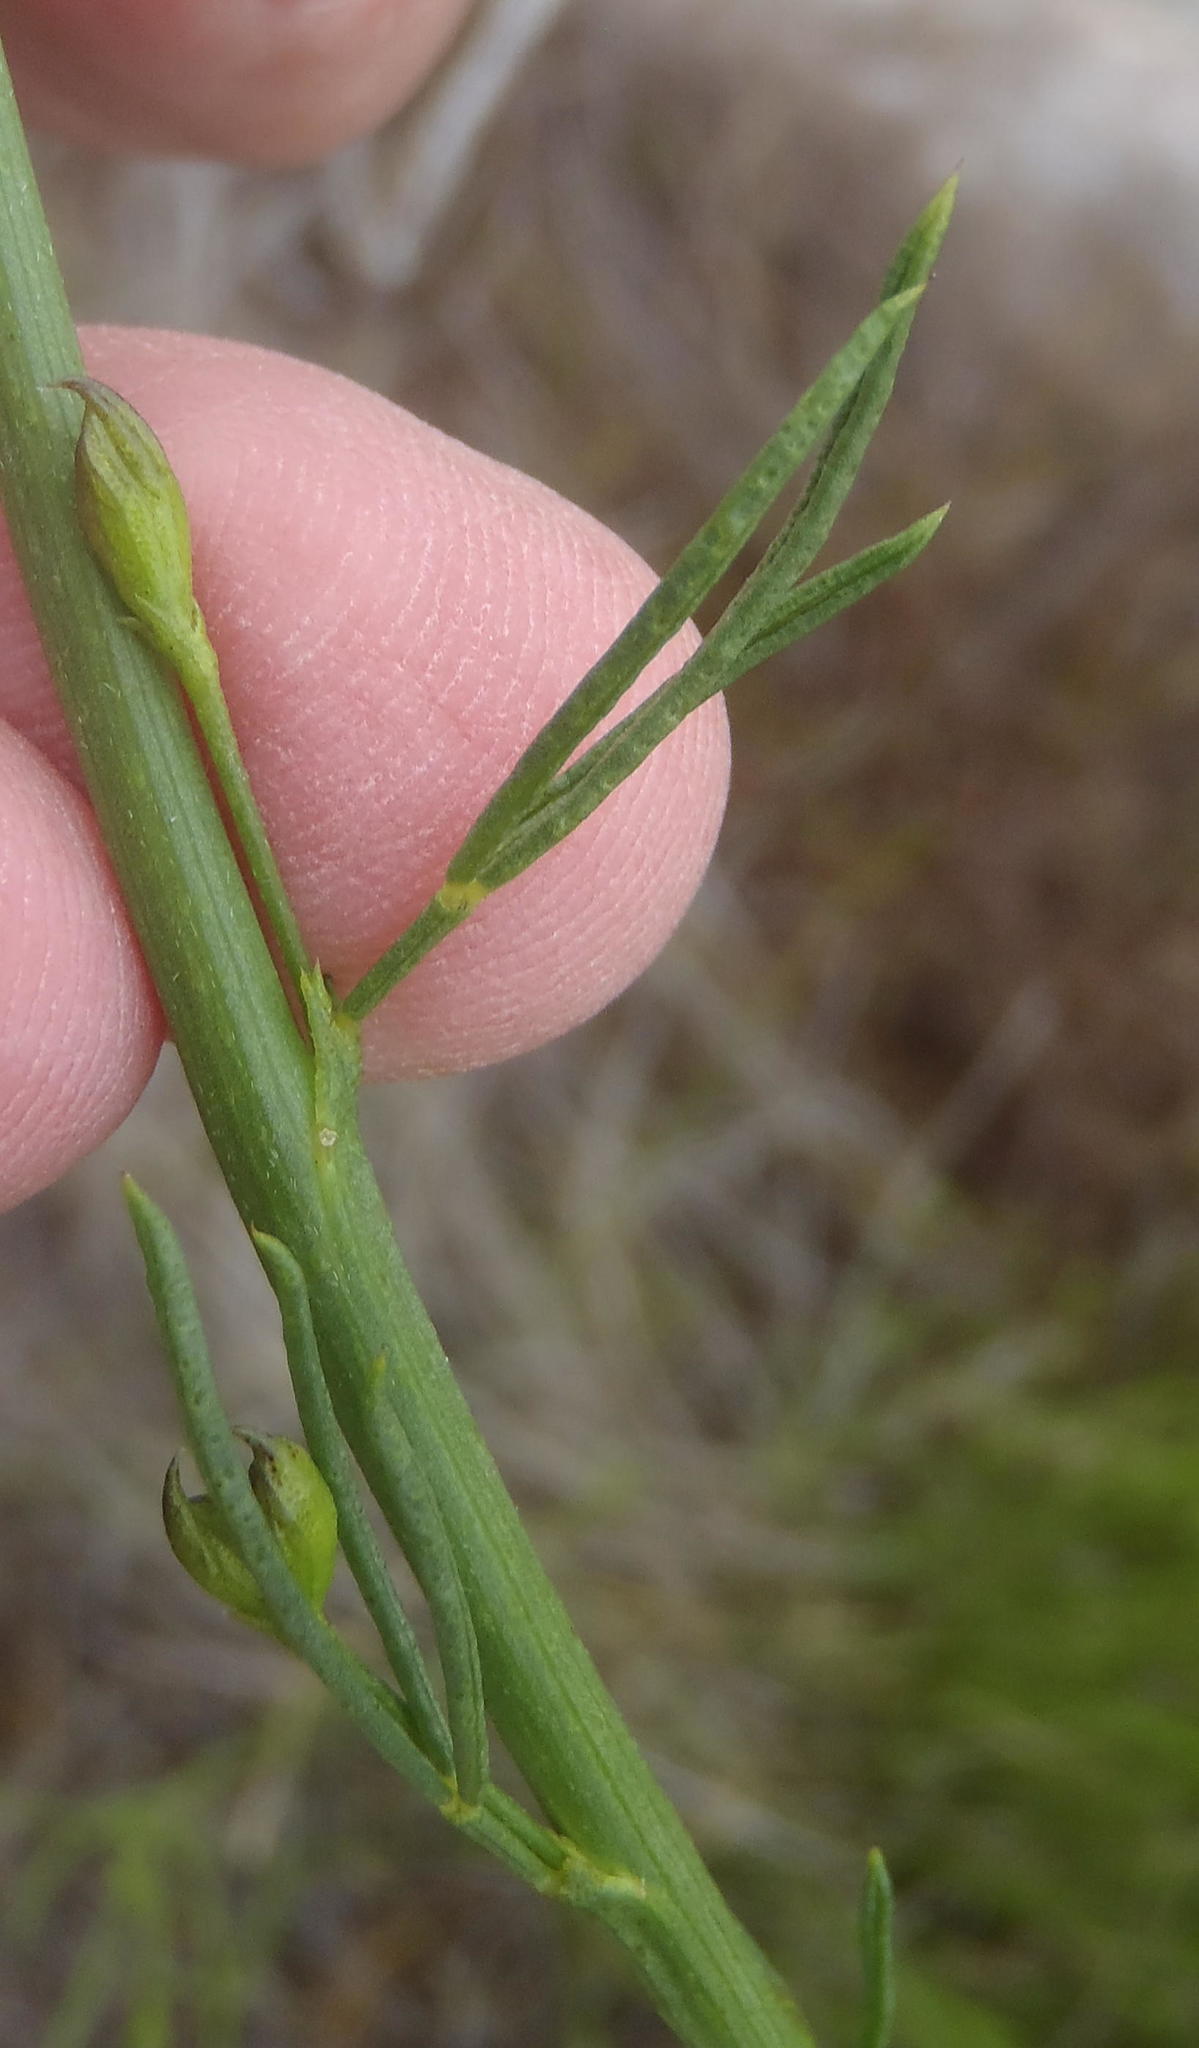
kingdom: Plantae
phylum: Tracheophyta
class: Magnoliopsida
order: Fabales
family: Fabaceae
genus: Psoralea
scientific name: Psoralea diturnerae
